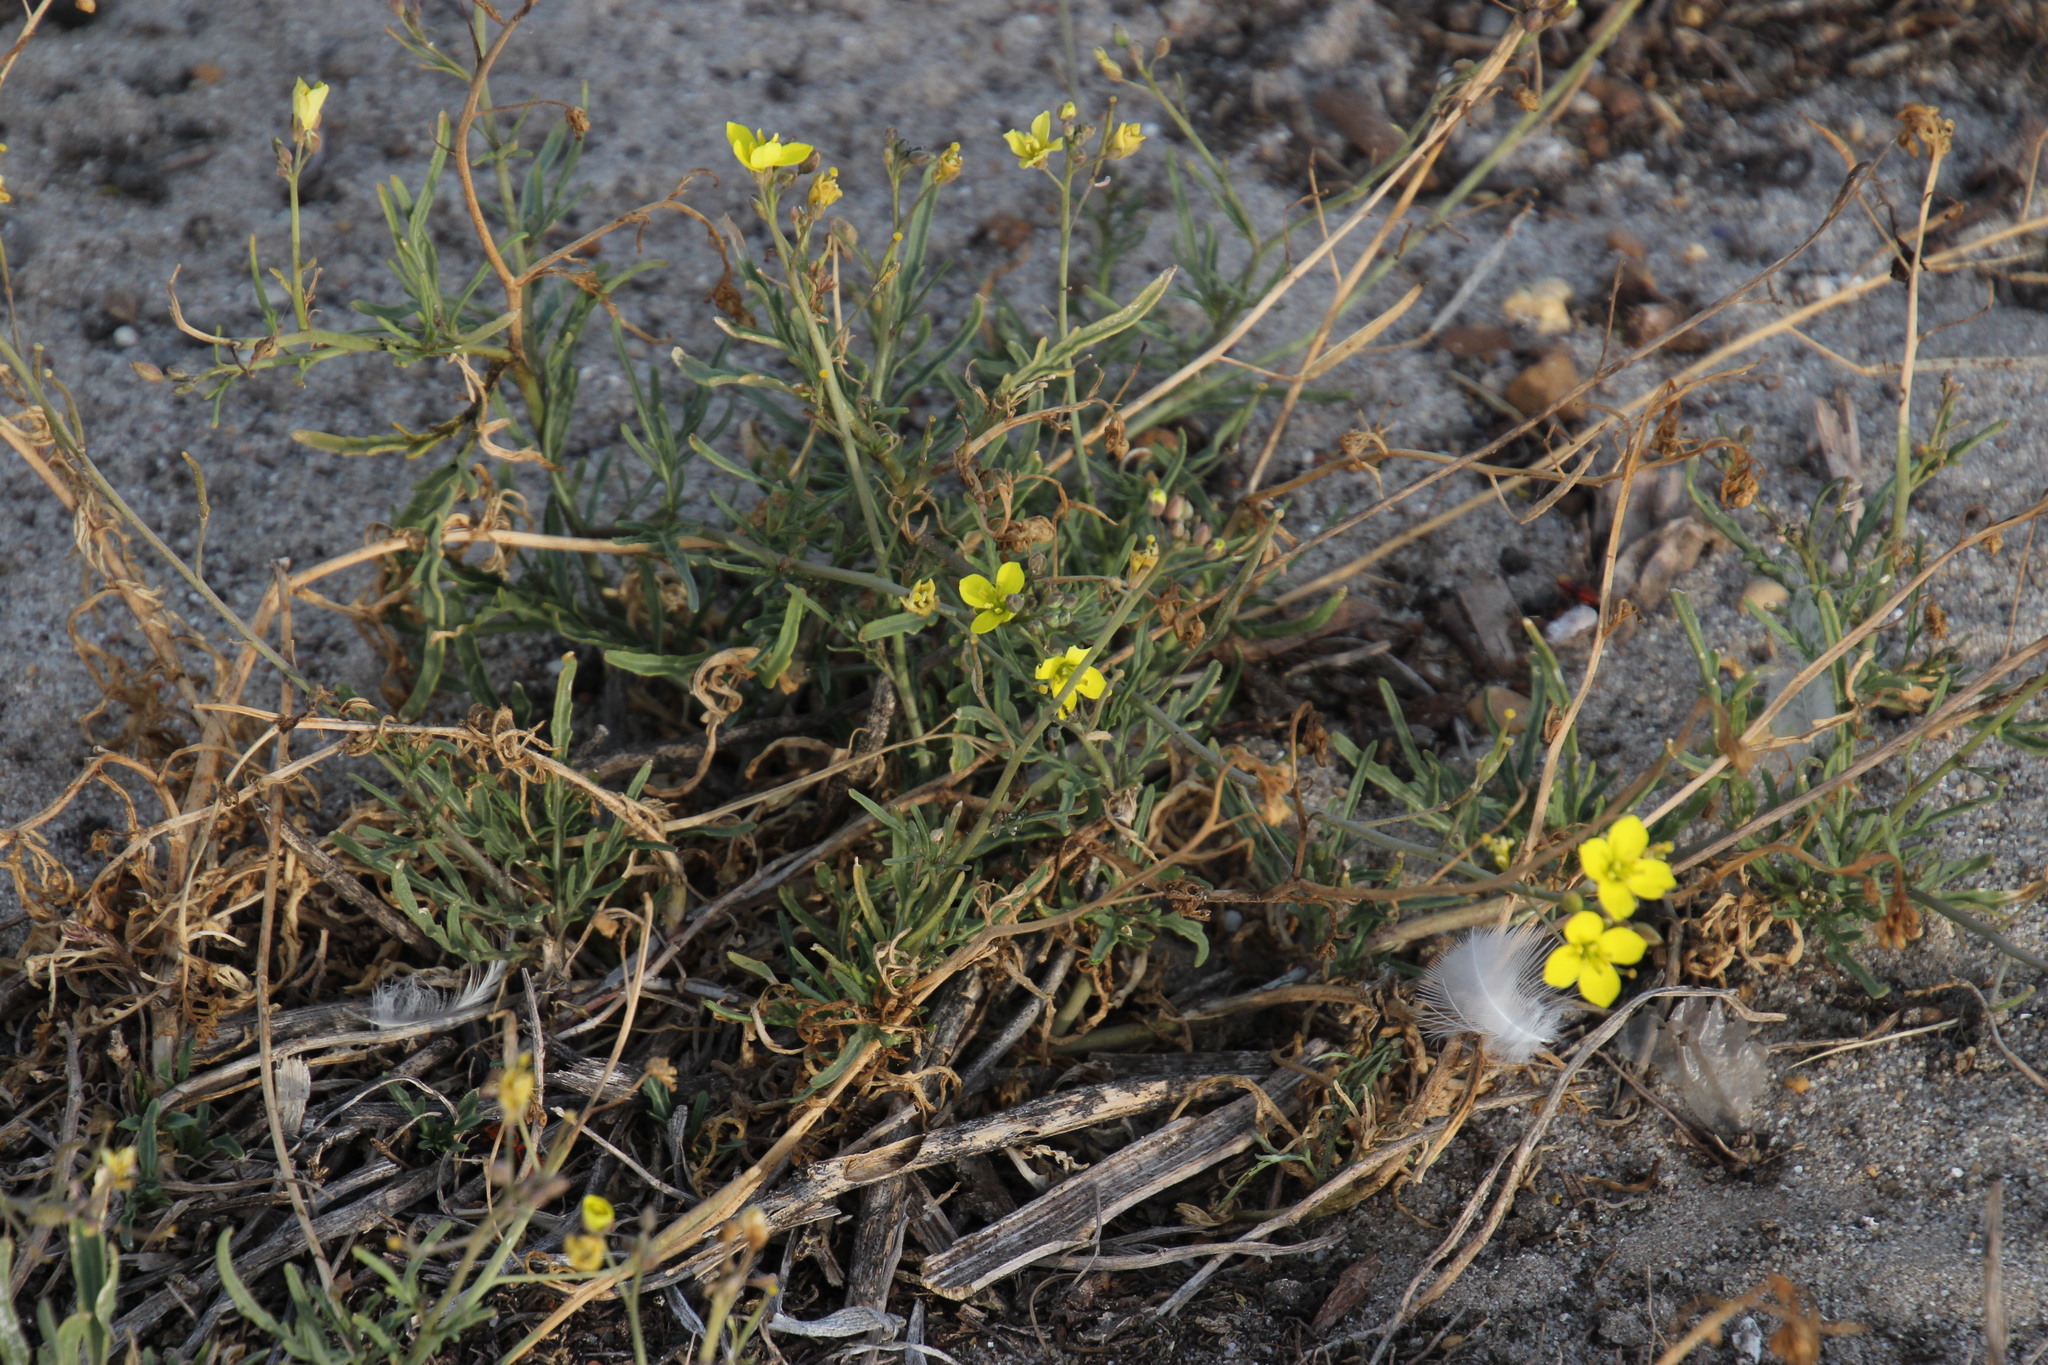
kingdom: Plantae
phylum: Tracheophyta
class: Magnoliopsida
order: Brassicales
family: Brassicaceae
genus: Diplotaxis
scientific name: Diplotaxis tenuifolia
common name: Perennial wall-rocket
